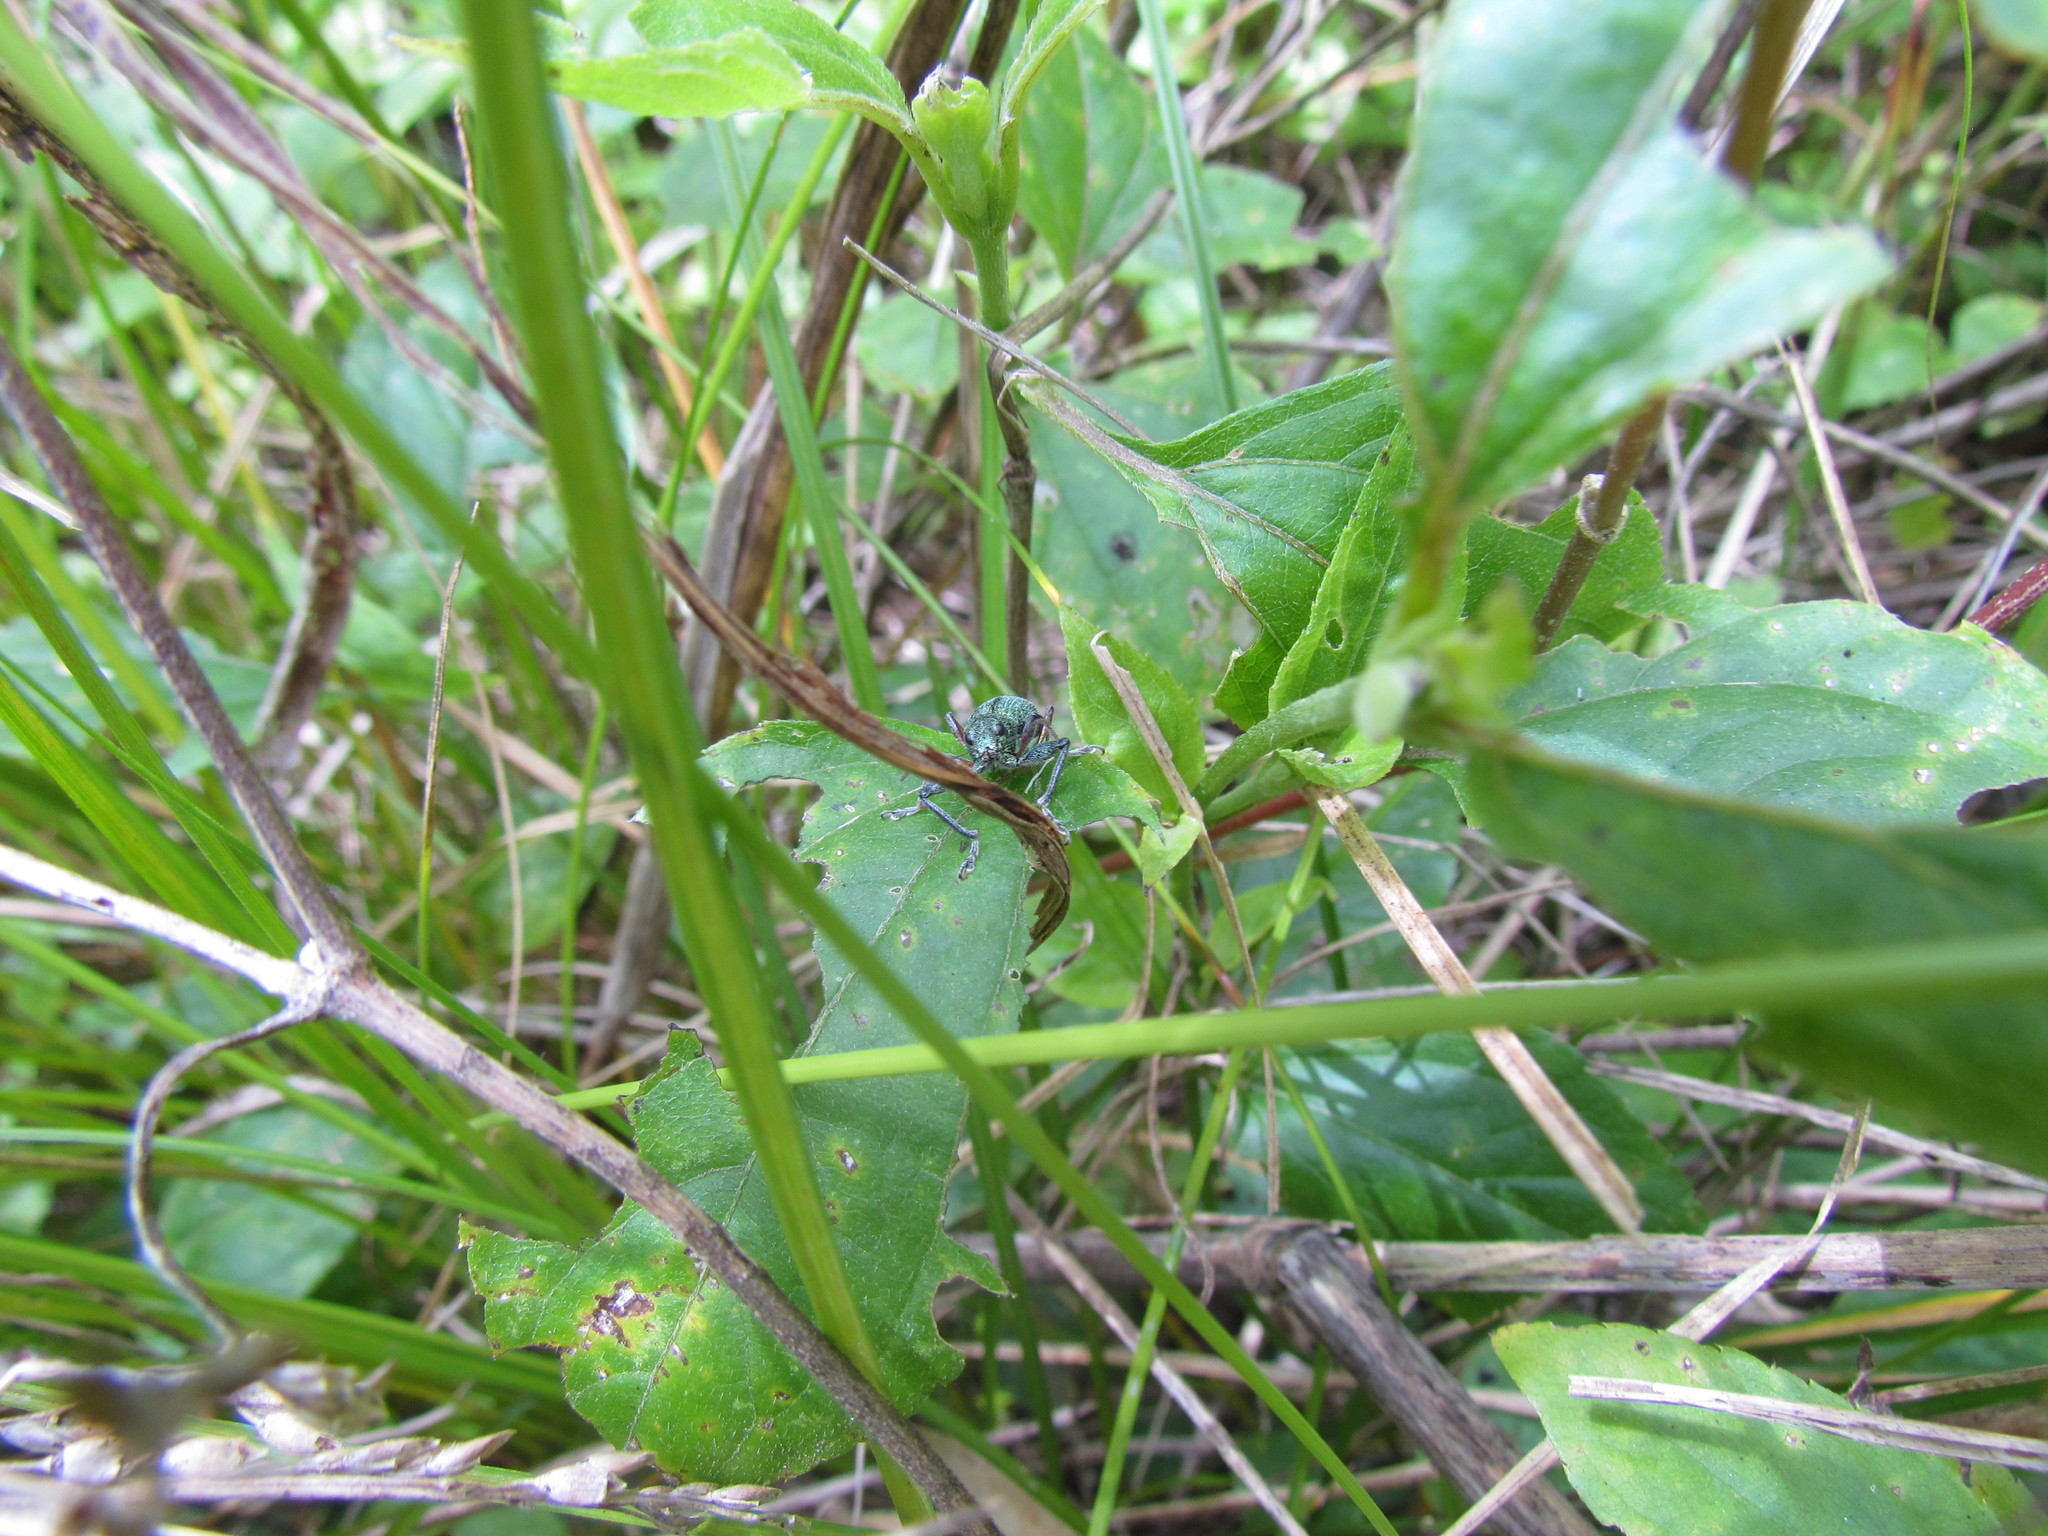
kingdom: Animalia
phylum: Arthropoda
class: Insecta
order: Coleoptera
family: Curculionidae
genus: Naupactus
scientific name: Naupactus auricinctus
